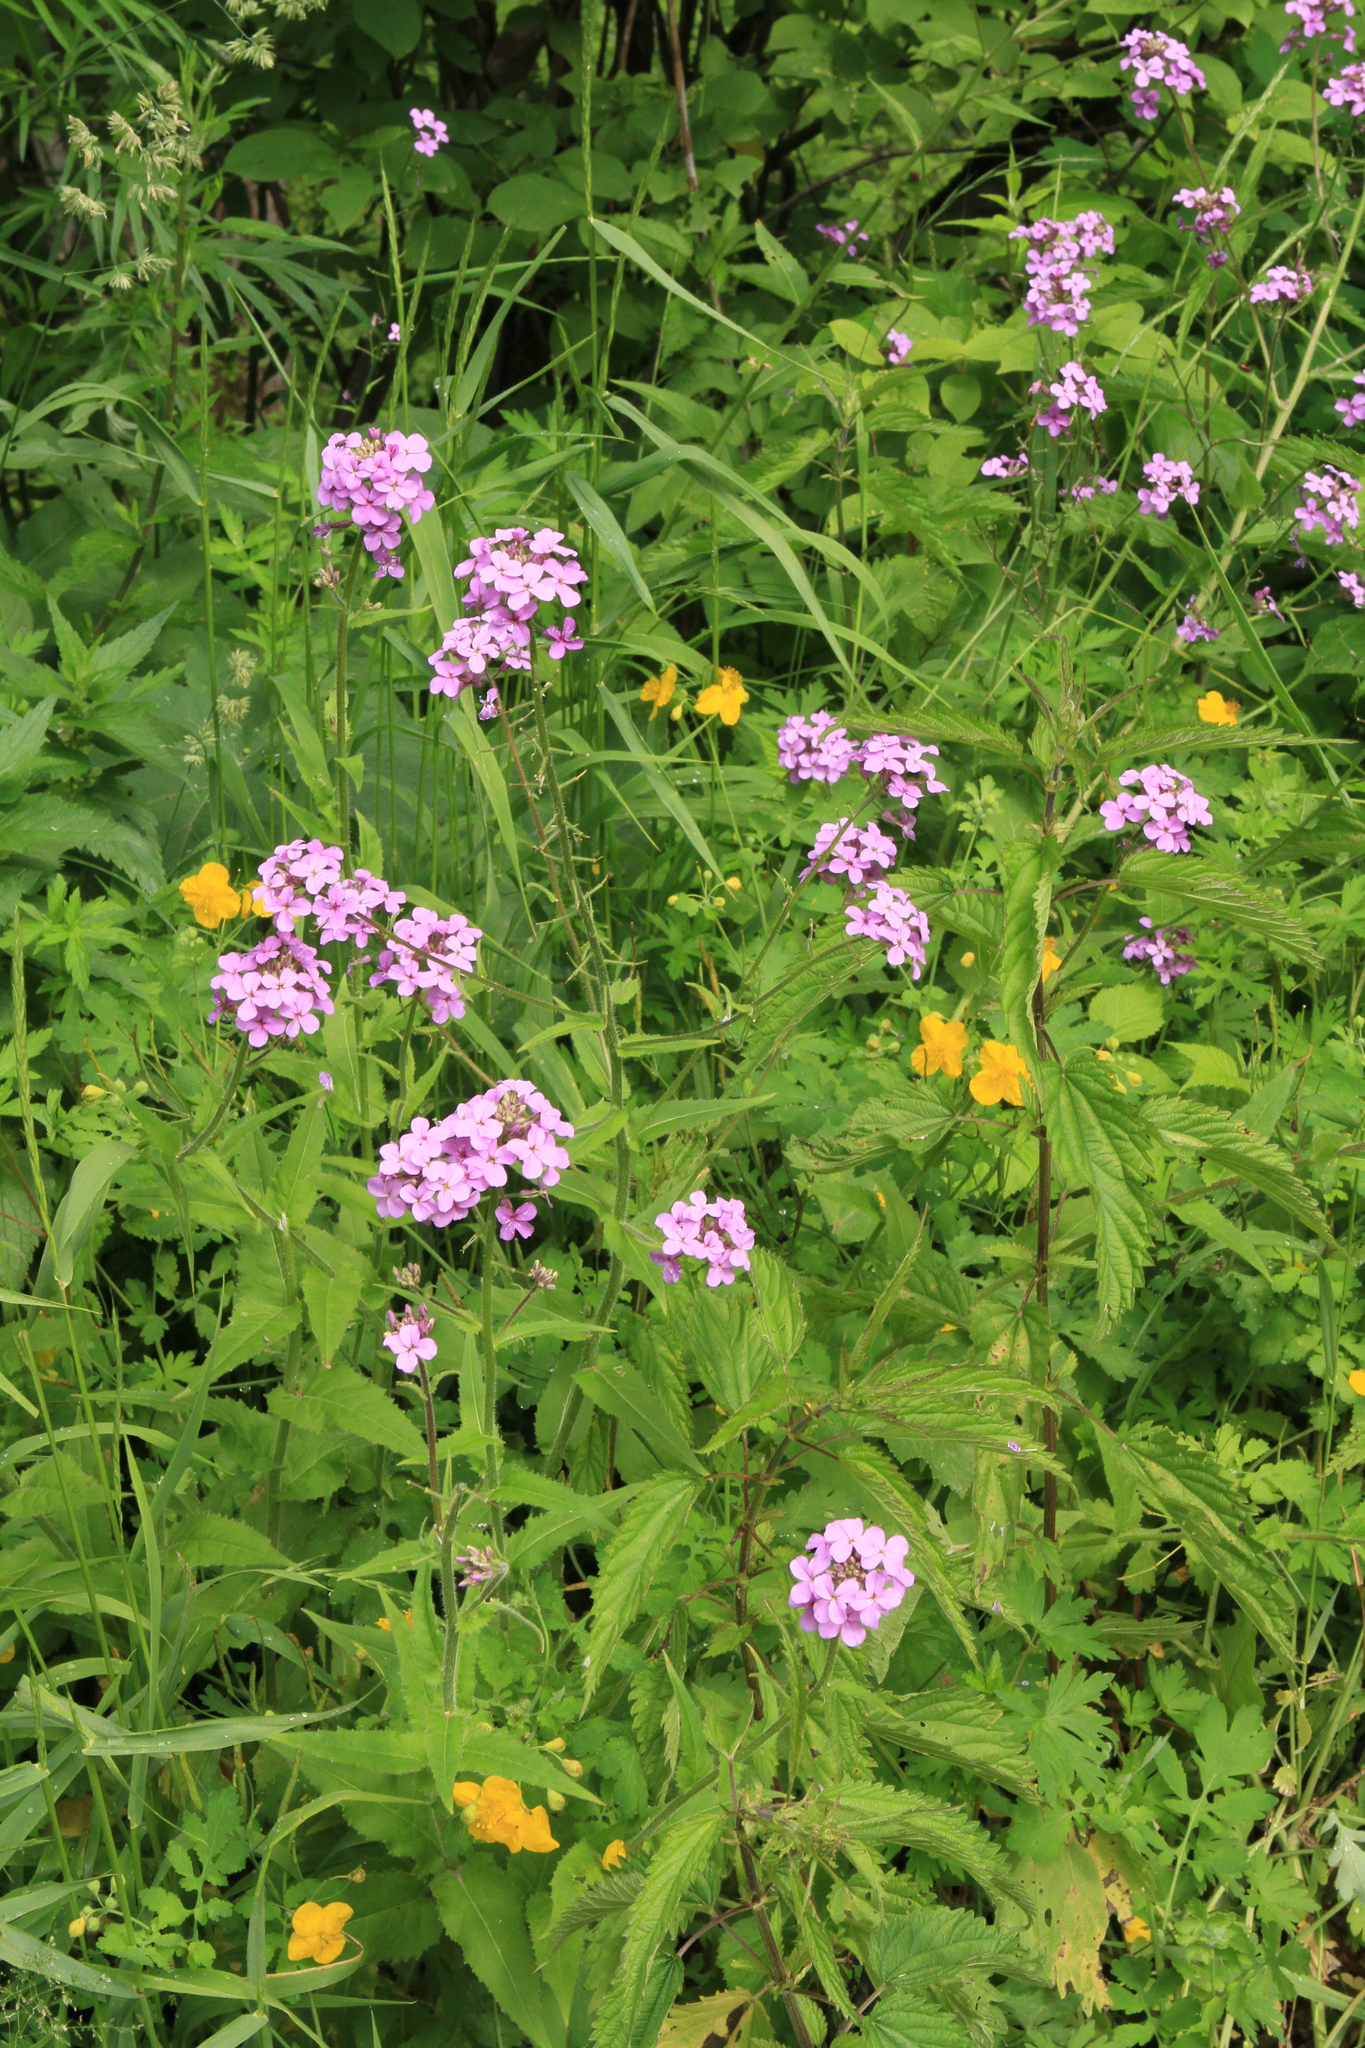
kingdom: Plantae
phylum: Tracheophyta
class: Magnoliopsida
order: Brassicales
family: Brassicaceae
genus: Hesperis
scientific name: Hesperis sibirica
